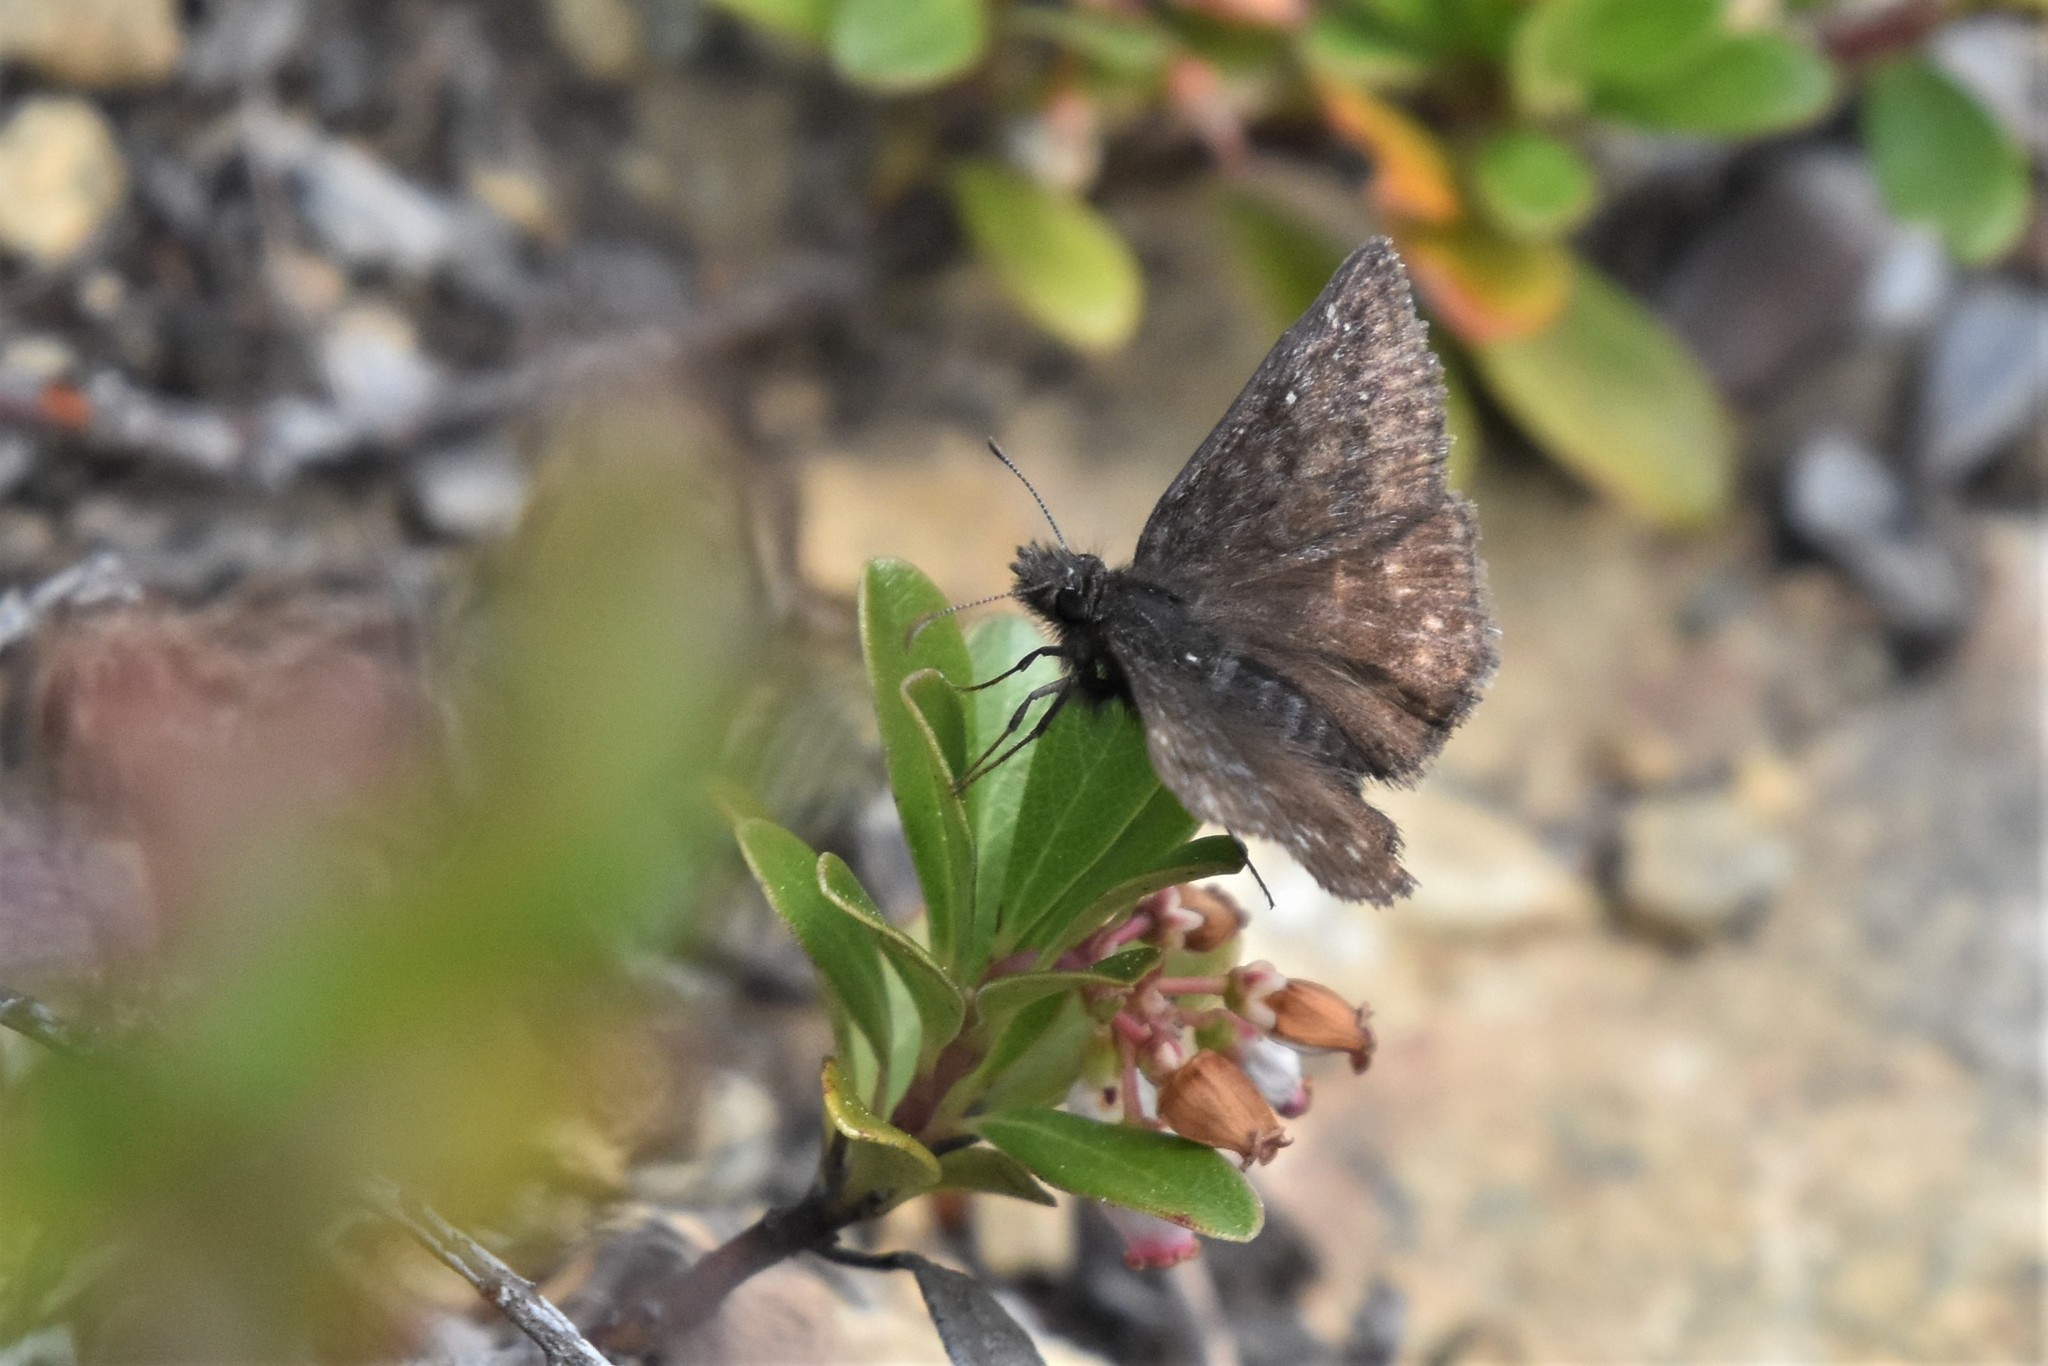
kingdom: Animalia
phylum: Arthropoda
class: Insecta
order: Lepidoptera
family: Hesperiidae
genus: Erynnis
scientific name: Erynnis persius
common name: Persius duskywing
